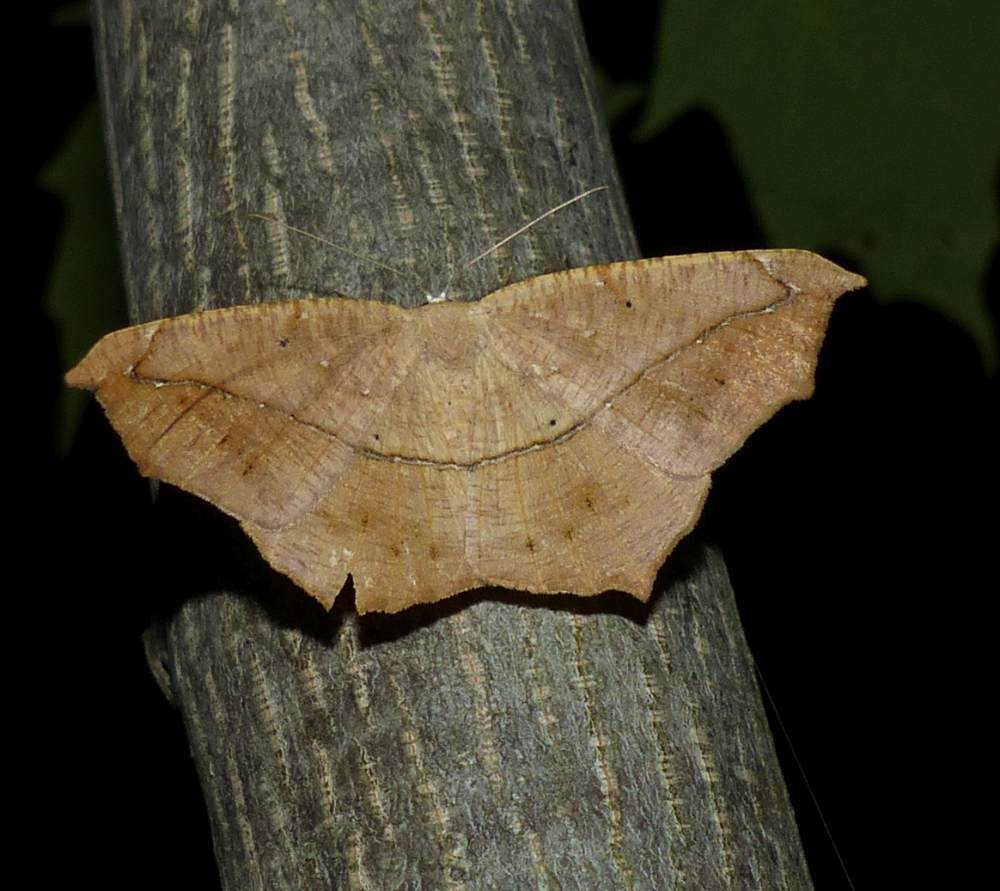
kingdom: Animalia
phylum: Arthropoda
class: Insecta
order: Lepidoptera
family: Geometridae
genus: Prochoerodes
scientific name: Prochoerodes lineola
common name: Large maple spanworm
